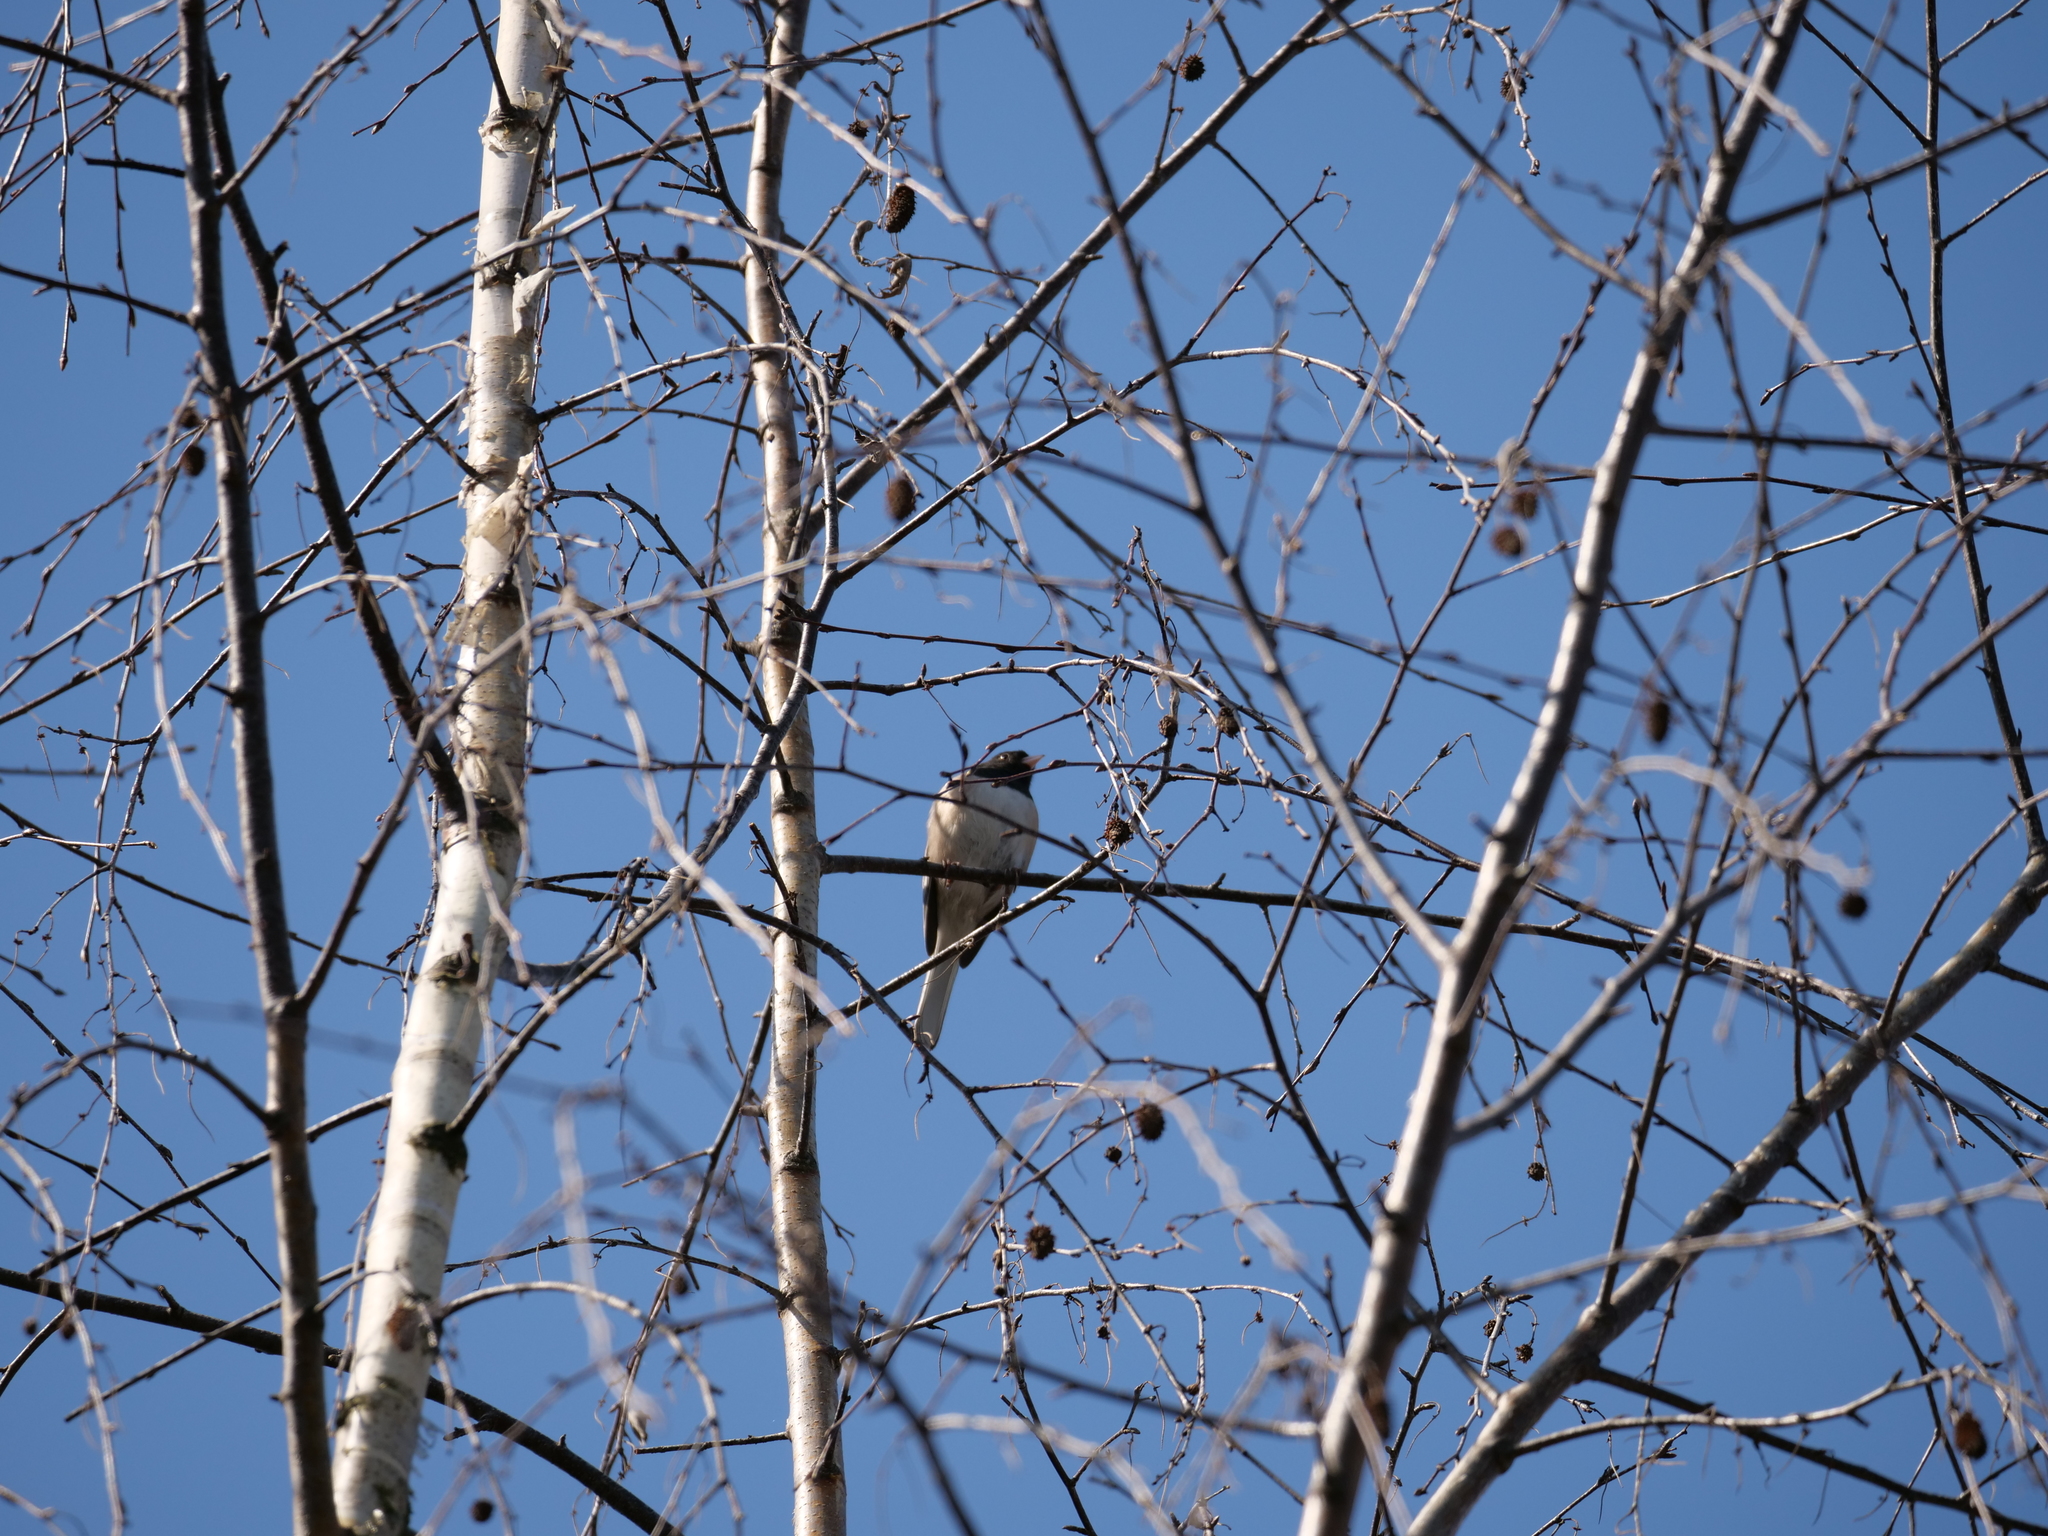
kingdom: Animalia
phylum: Chordata
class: Aves
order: Passeriformes
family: Passerellidae
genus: Junco
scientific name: Junco hyemalis
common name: Dark-eyed junco
